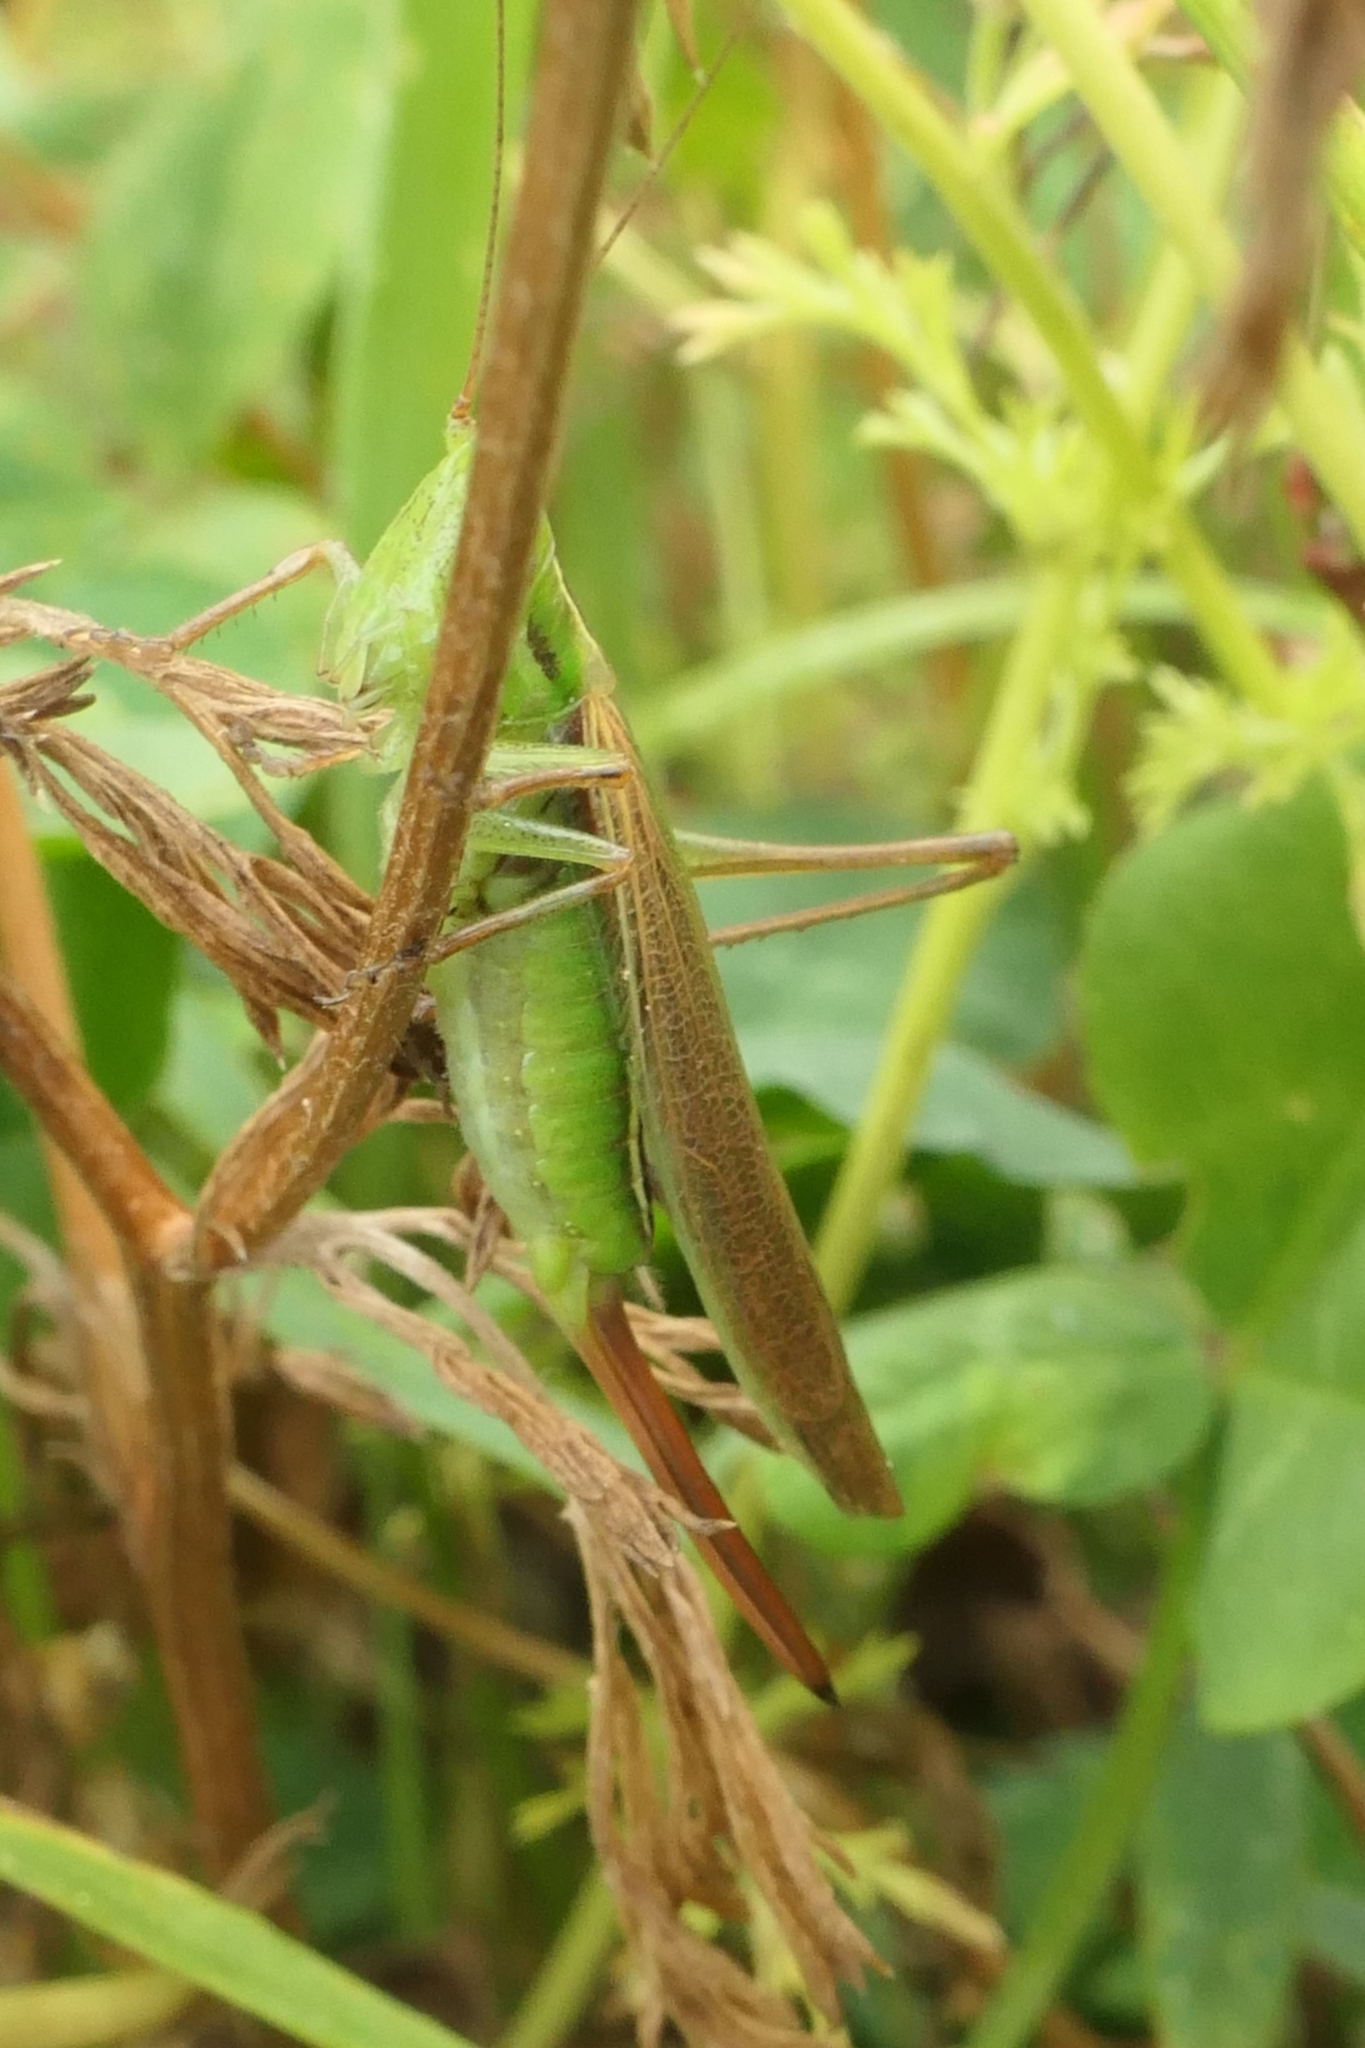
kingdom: Animalia
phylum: Arthropoda
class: Insecta
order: Orthoptera
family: Tettigoniidae
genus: Conocephalus
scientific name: Conocephalus bilineatus
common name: Small meadow katydid
